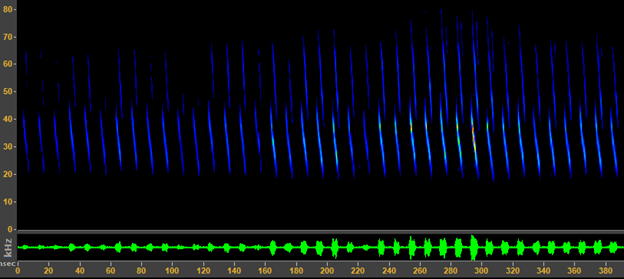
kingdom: Animalia
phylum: Chordata
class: Mammalia
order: Chiroptera
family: Vespertilionidae
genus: Corynorhinus
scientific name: Corynorhinus townsendii
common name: Townsend's big-eared bat
